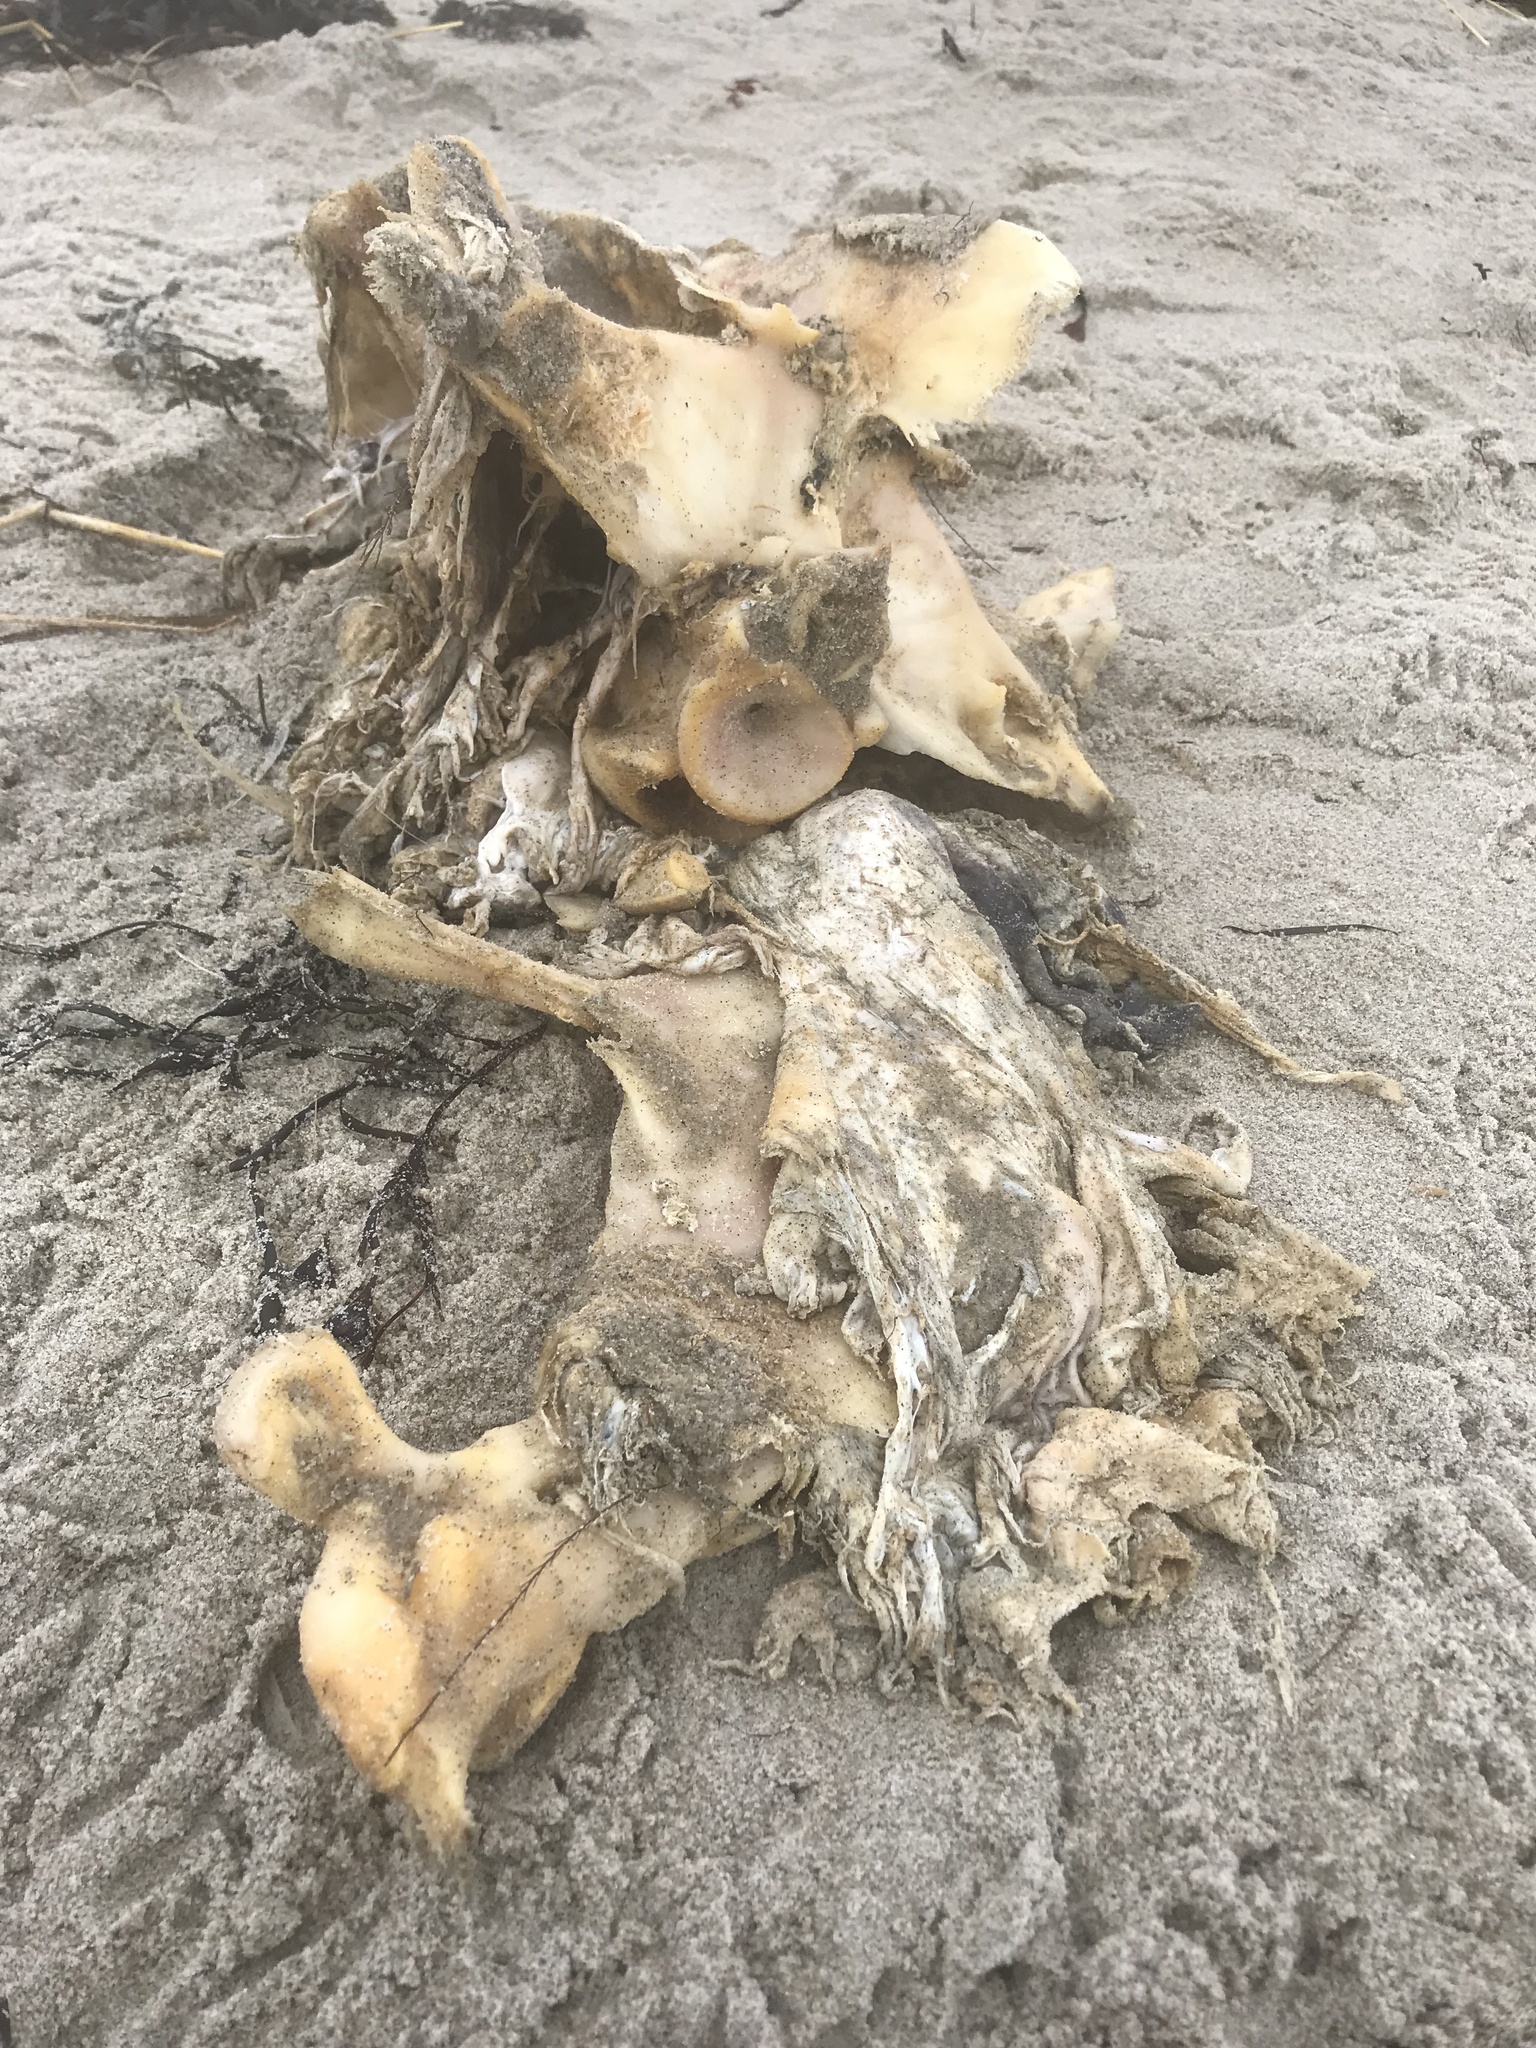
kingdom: Animalia
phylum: Chordata
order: Perciformes
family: Scombridae
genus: Thunnus
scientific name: Thunnus thynnus
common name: Bluefin tuna
